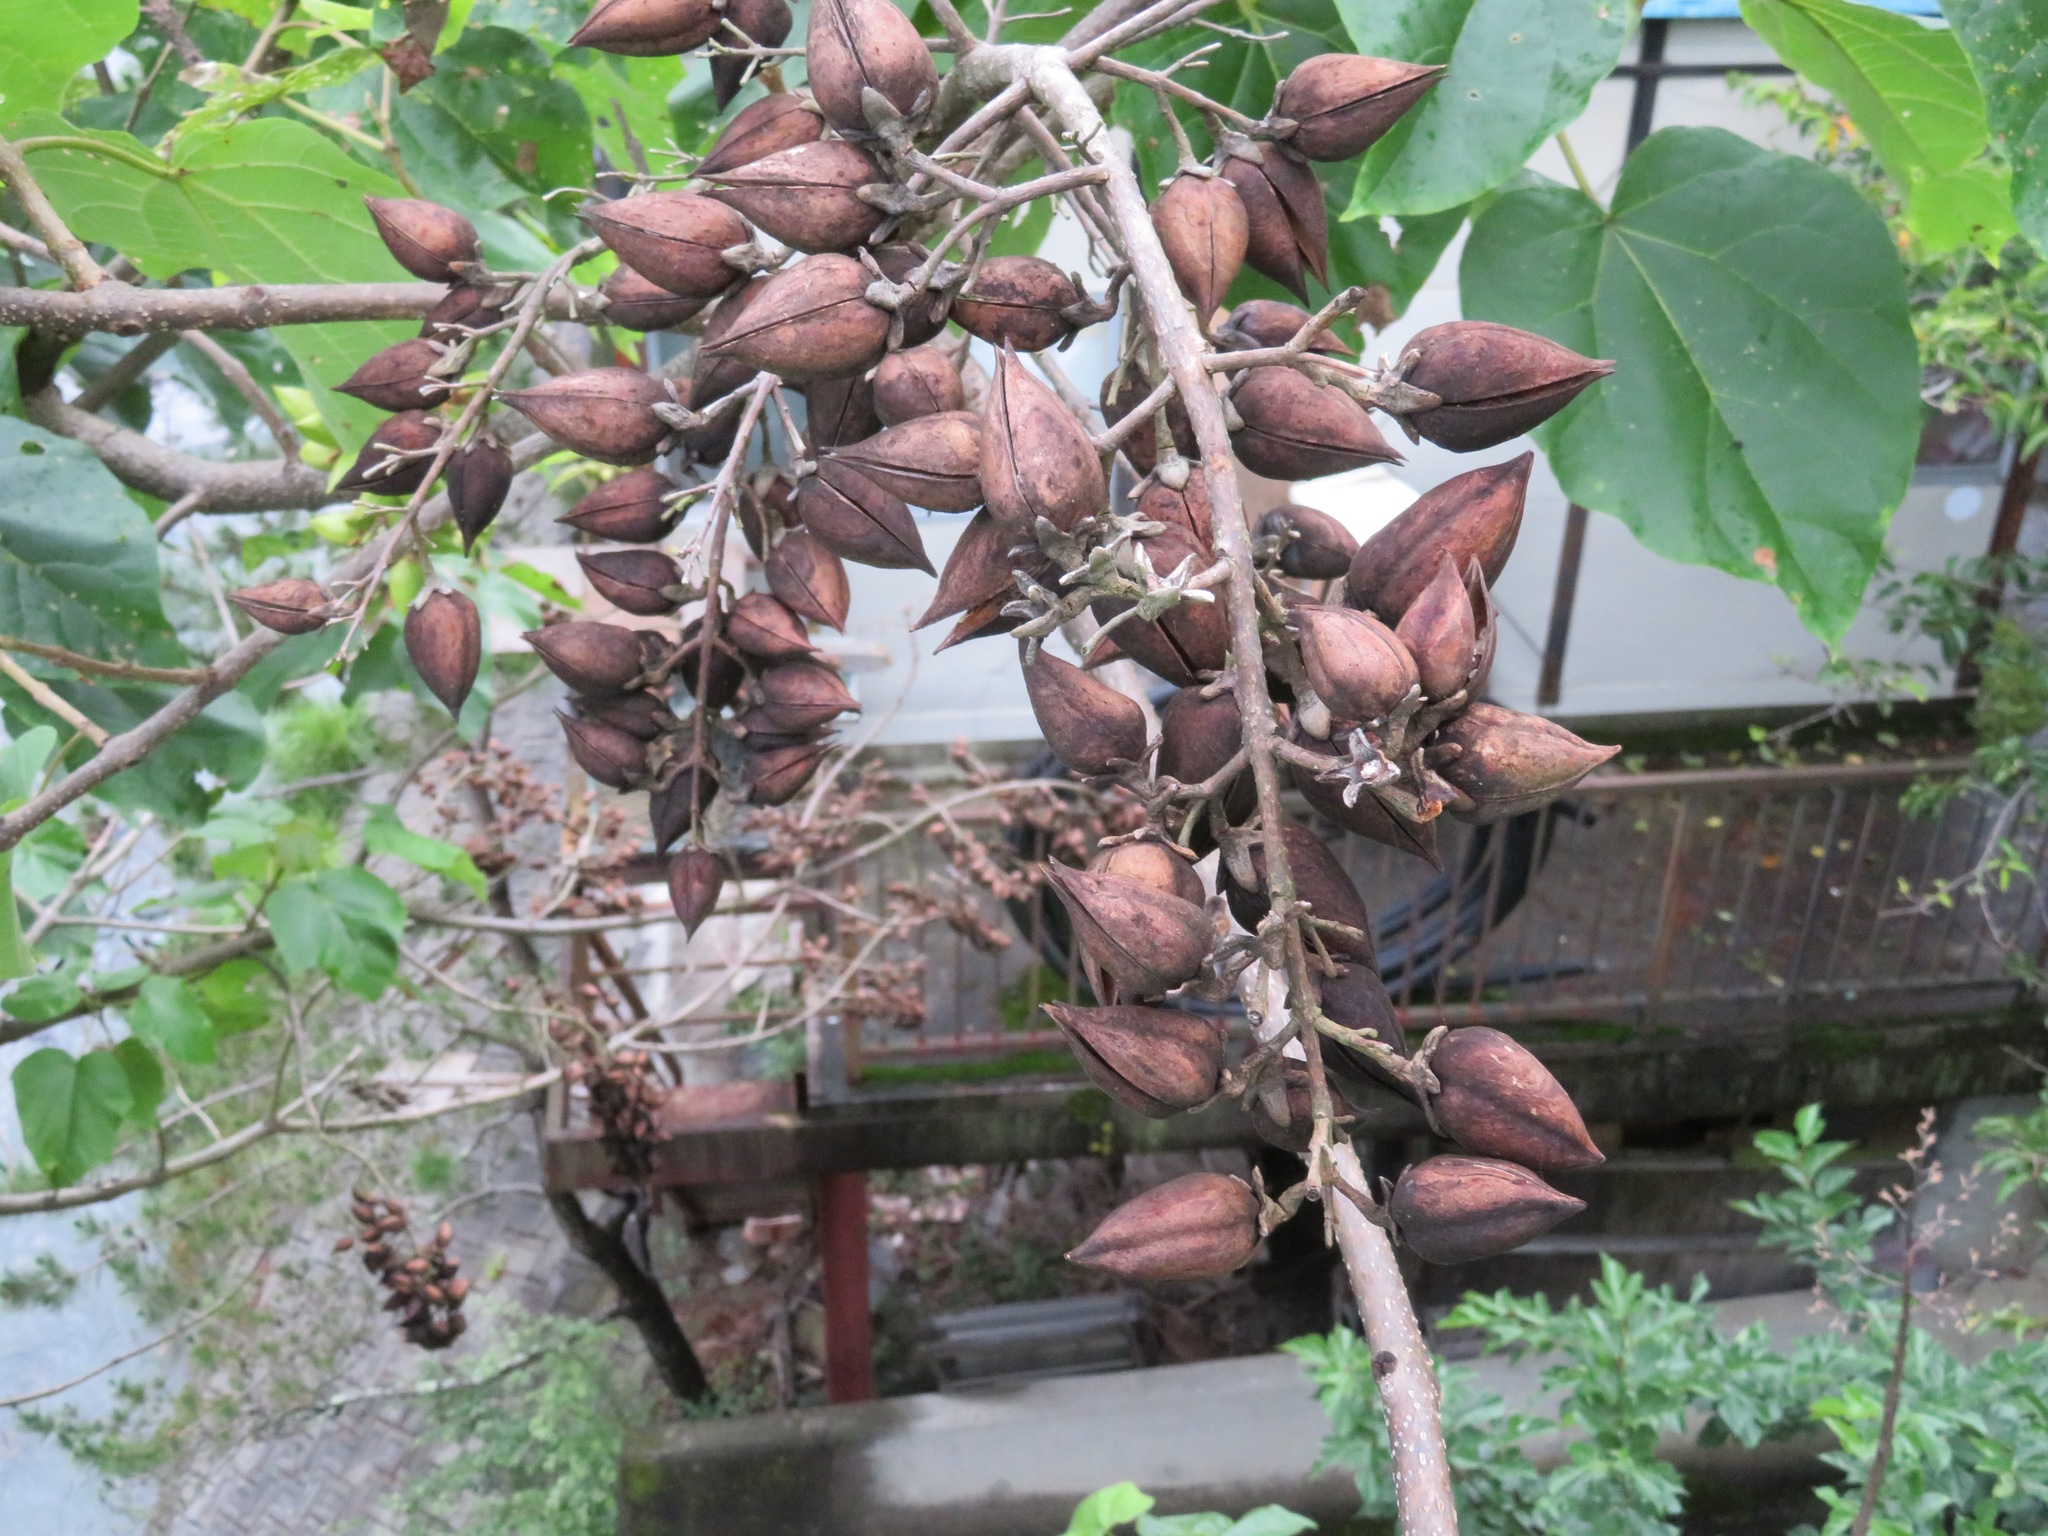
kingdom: Plantae
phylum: Tracheophyta
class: Magnoliopsida
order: Lamiales
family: Paulowniaceae
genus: Paulownia
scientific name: Paulownia tomentosa
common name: Foxglove-tree
